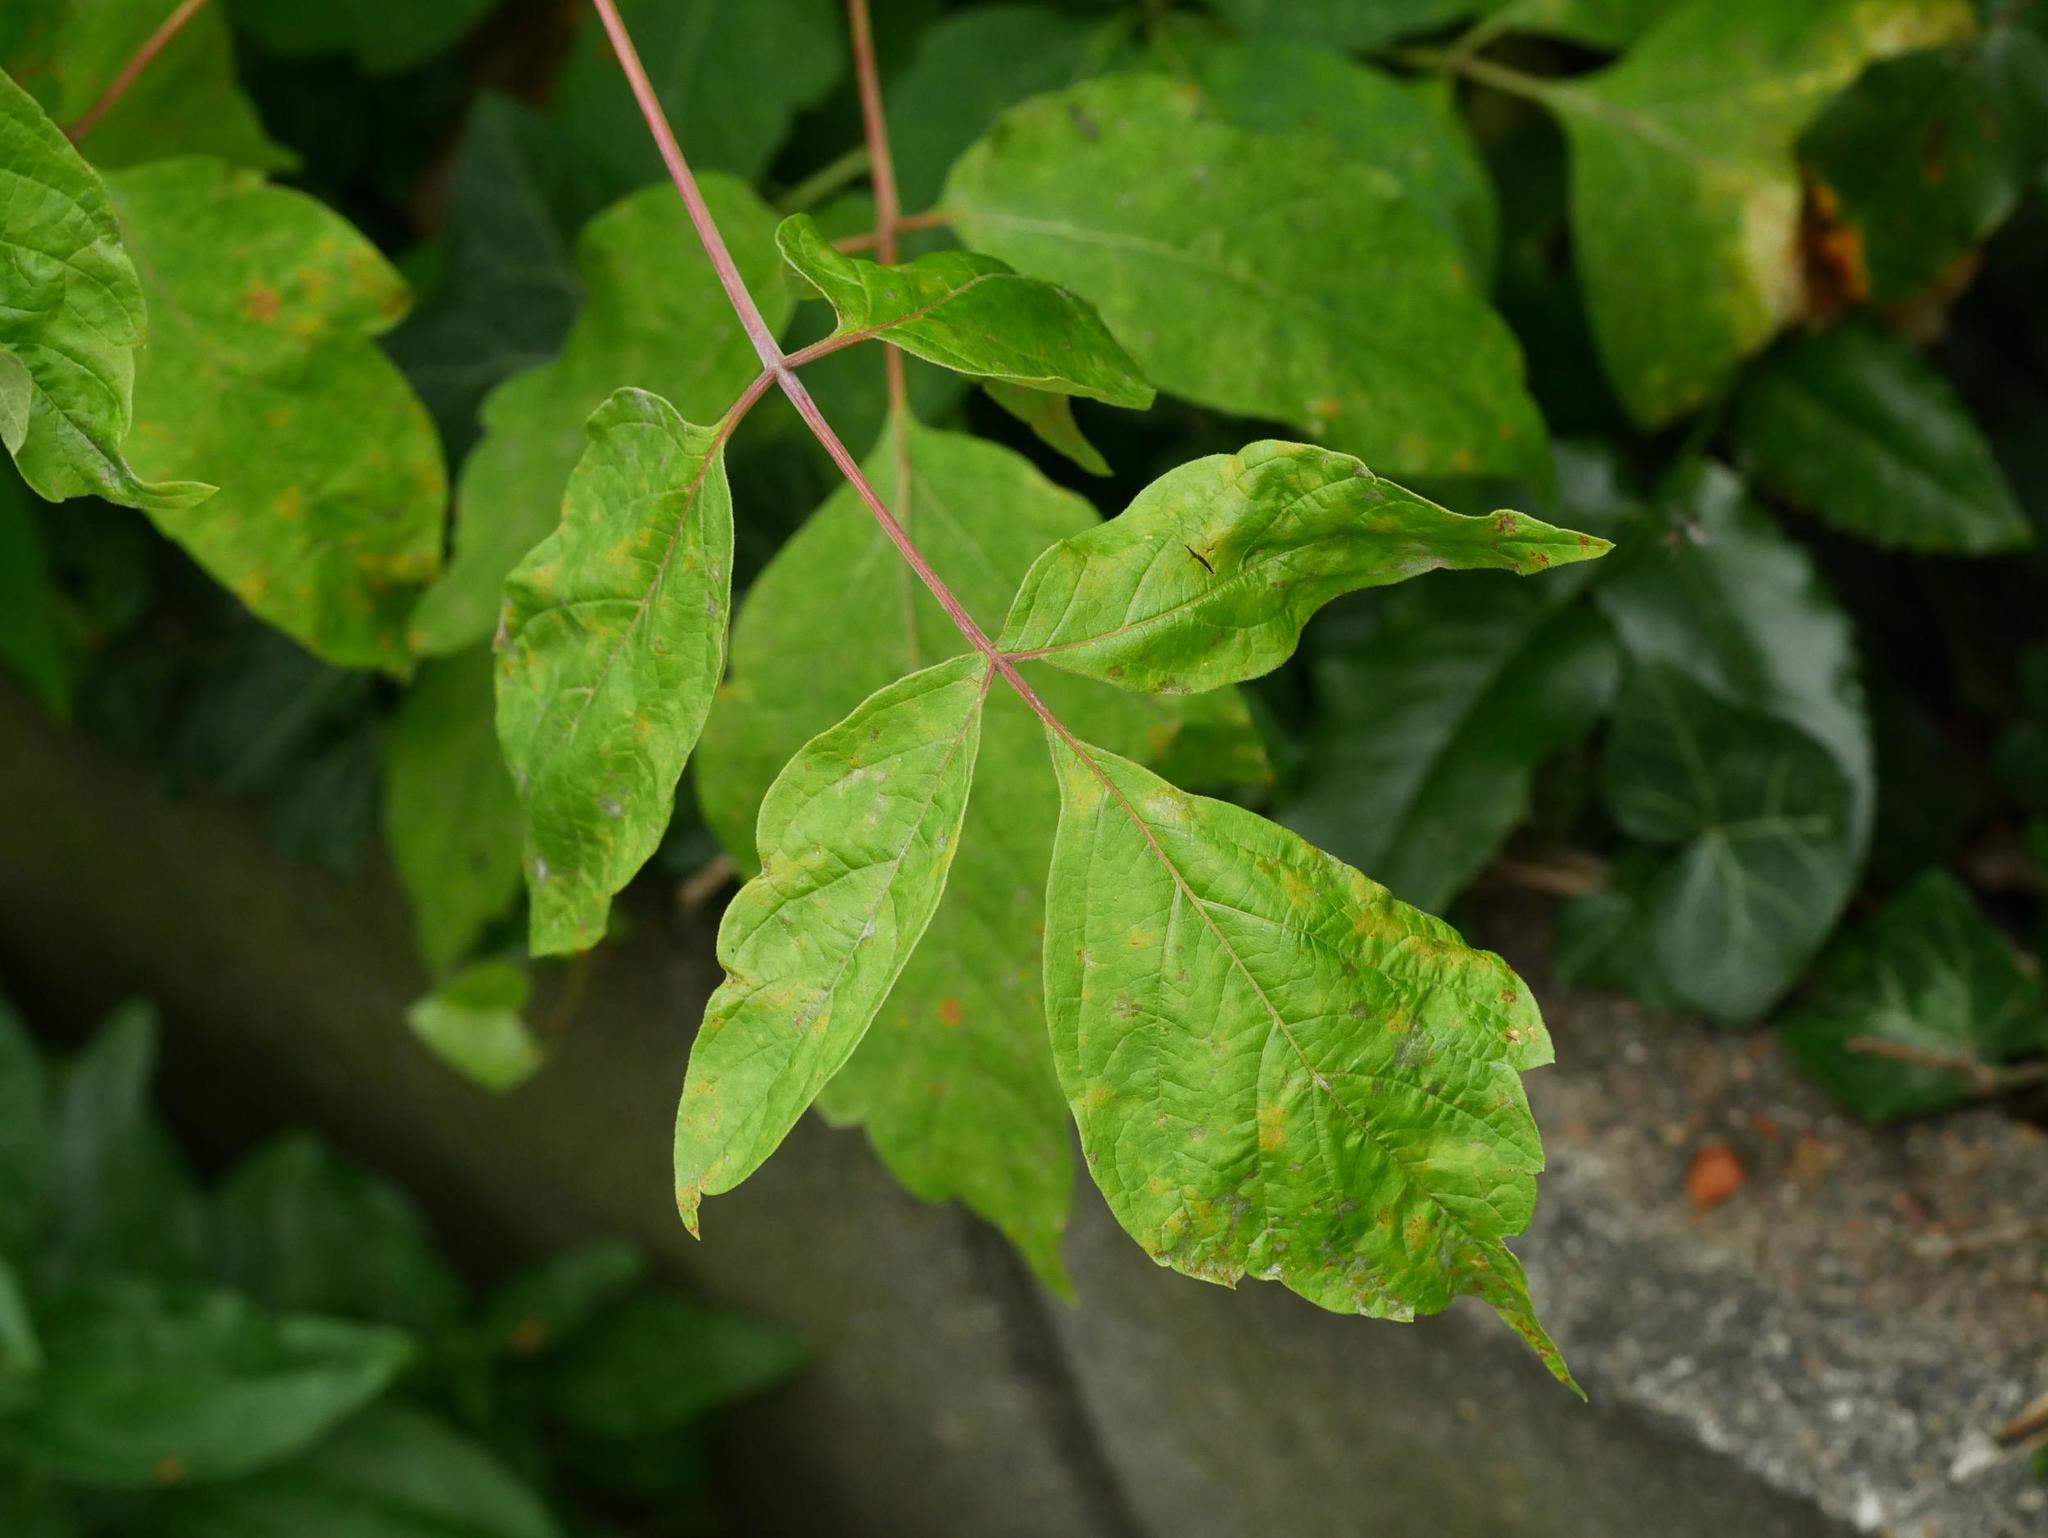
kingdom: Plantae
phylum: Tracheophyta
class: Magnoliopsida
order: Sapindales
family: Sapindaceae
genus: Acer
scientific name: Acer negundo
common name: Ashleaf maple
